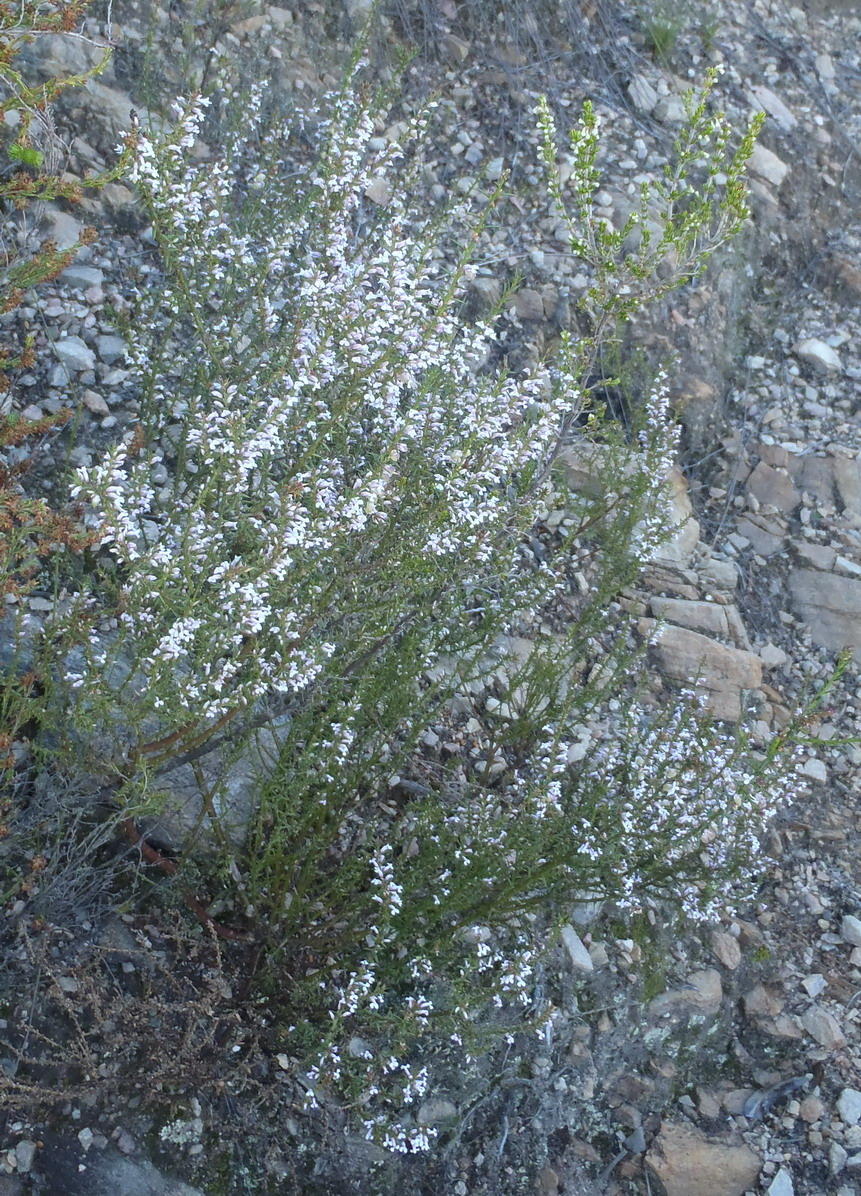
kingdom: Plantae
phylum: Tracheophyta
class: Magnoliopsida
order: Fabales
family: Polygalaceae
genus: Muraltia
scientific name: Muraltia juniperifolia
